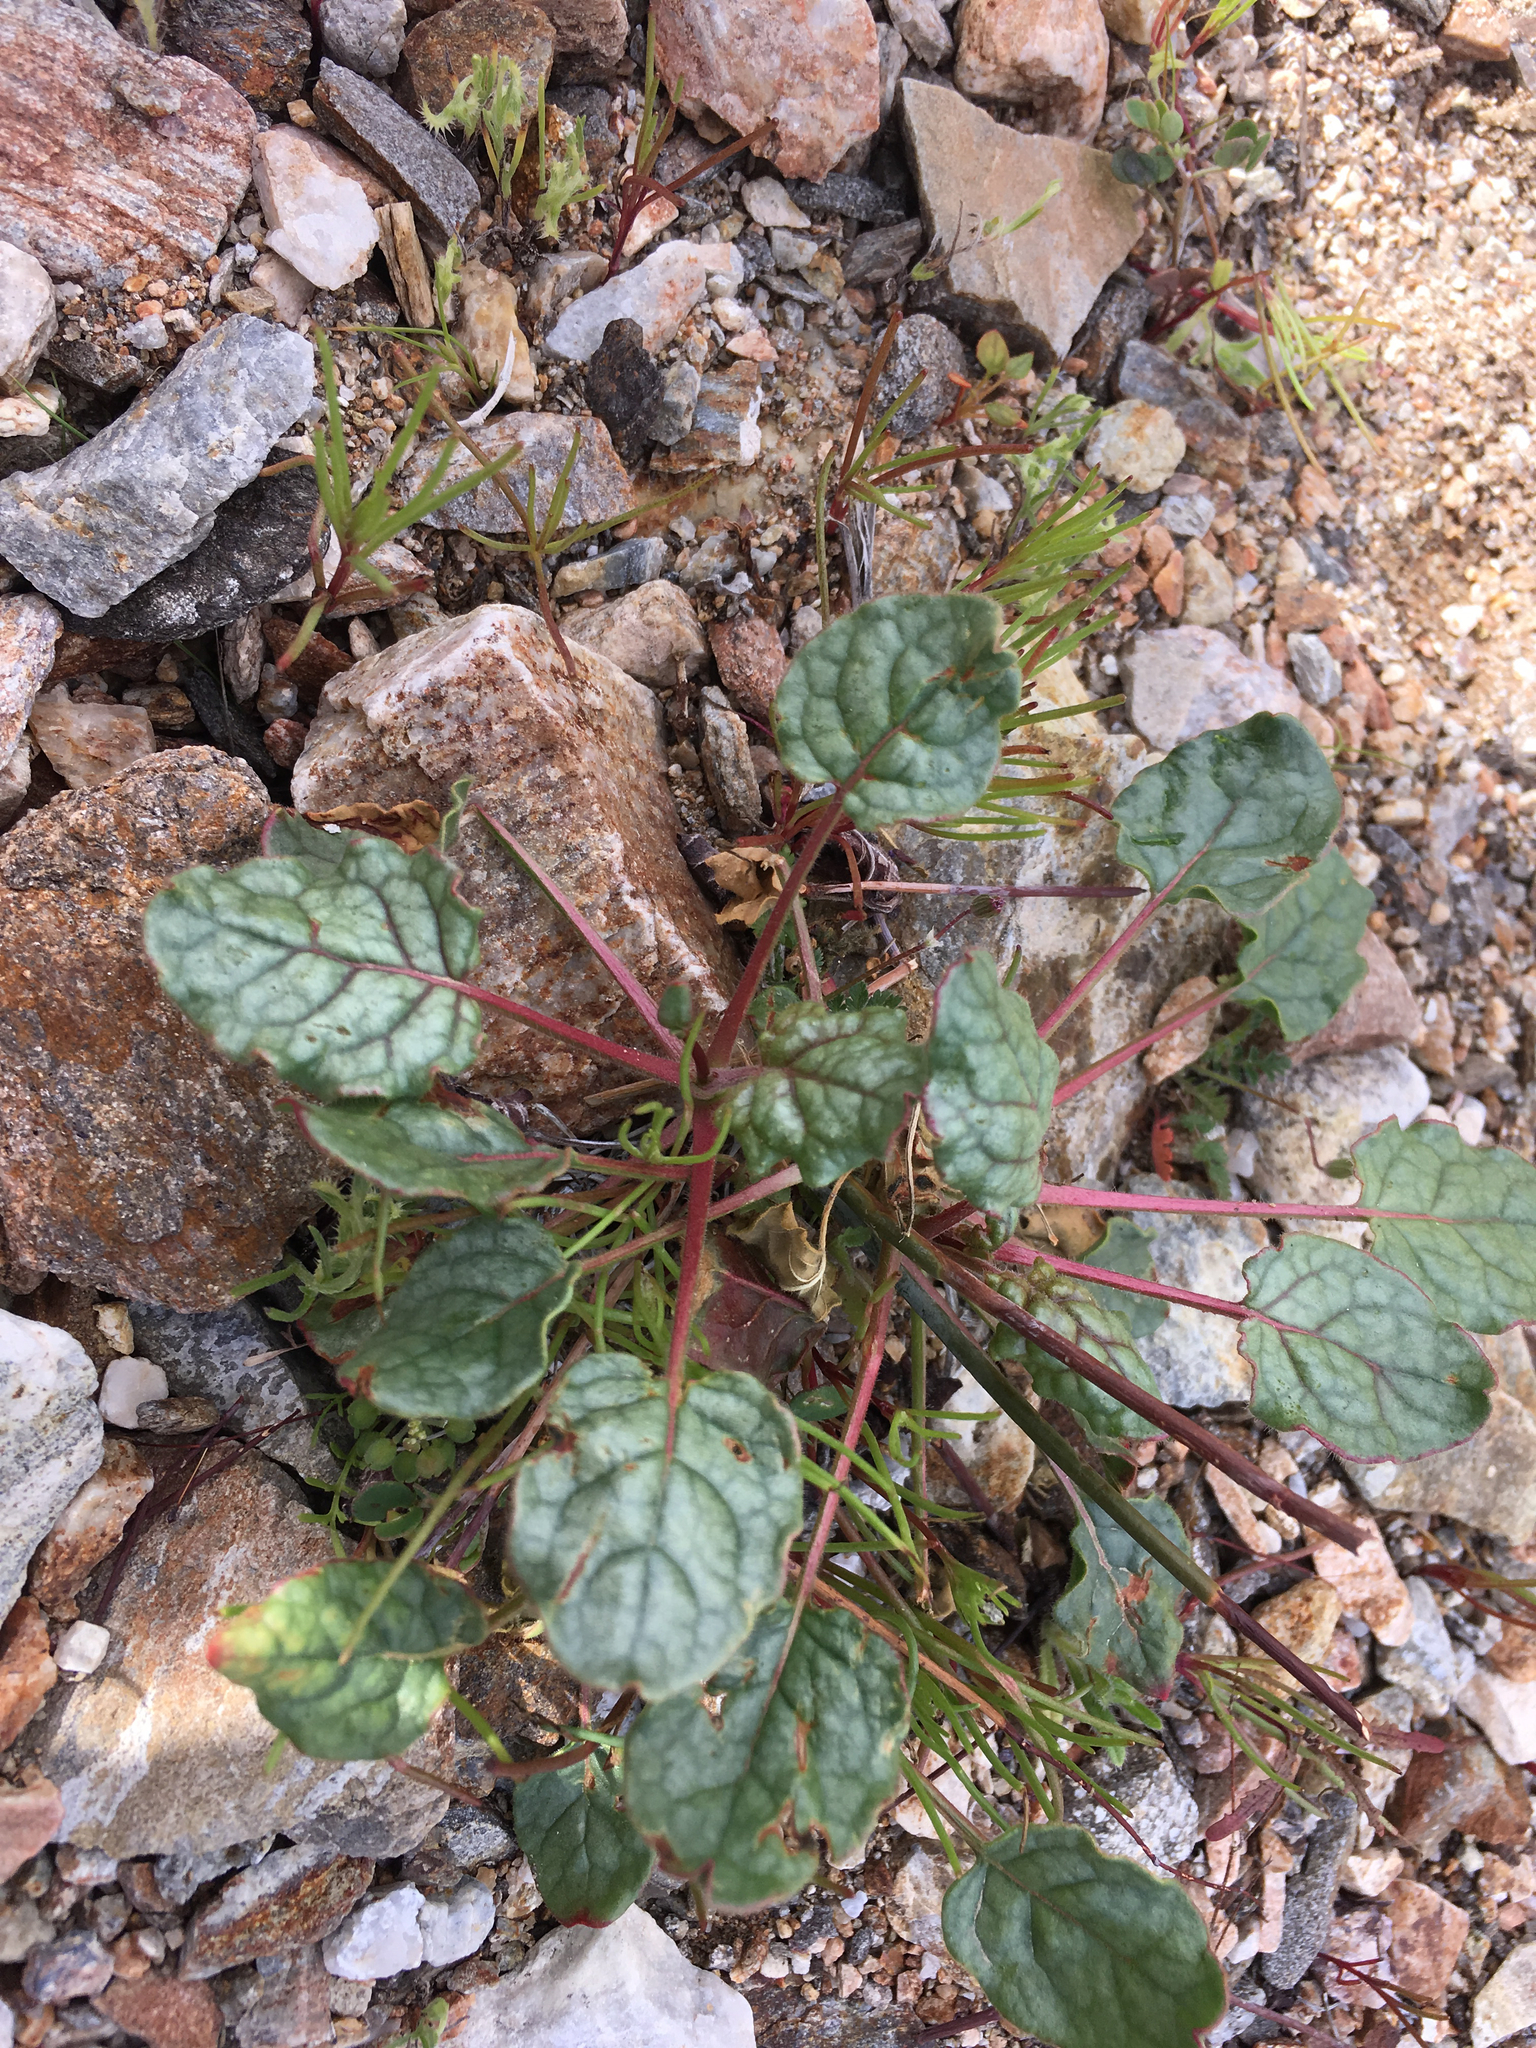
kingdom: Plantae
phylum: Tracheophyta
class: Magnoliopsida
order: Caryophyllales
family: Polygonaceae
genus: Eriogonum
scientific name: Eriogonum inflatum
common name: Desert trumpet
